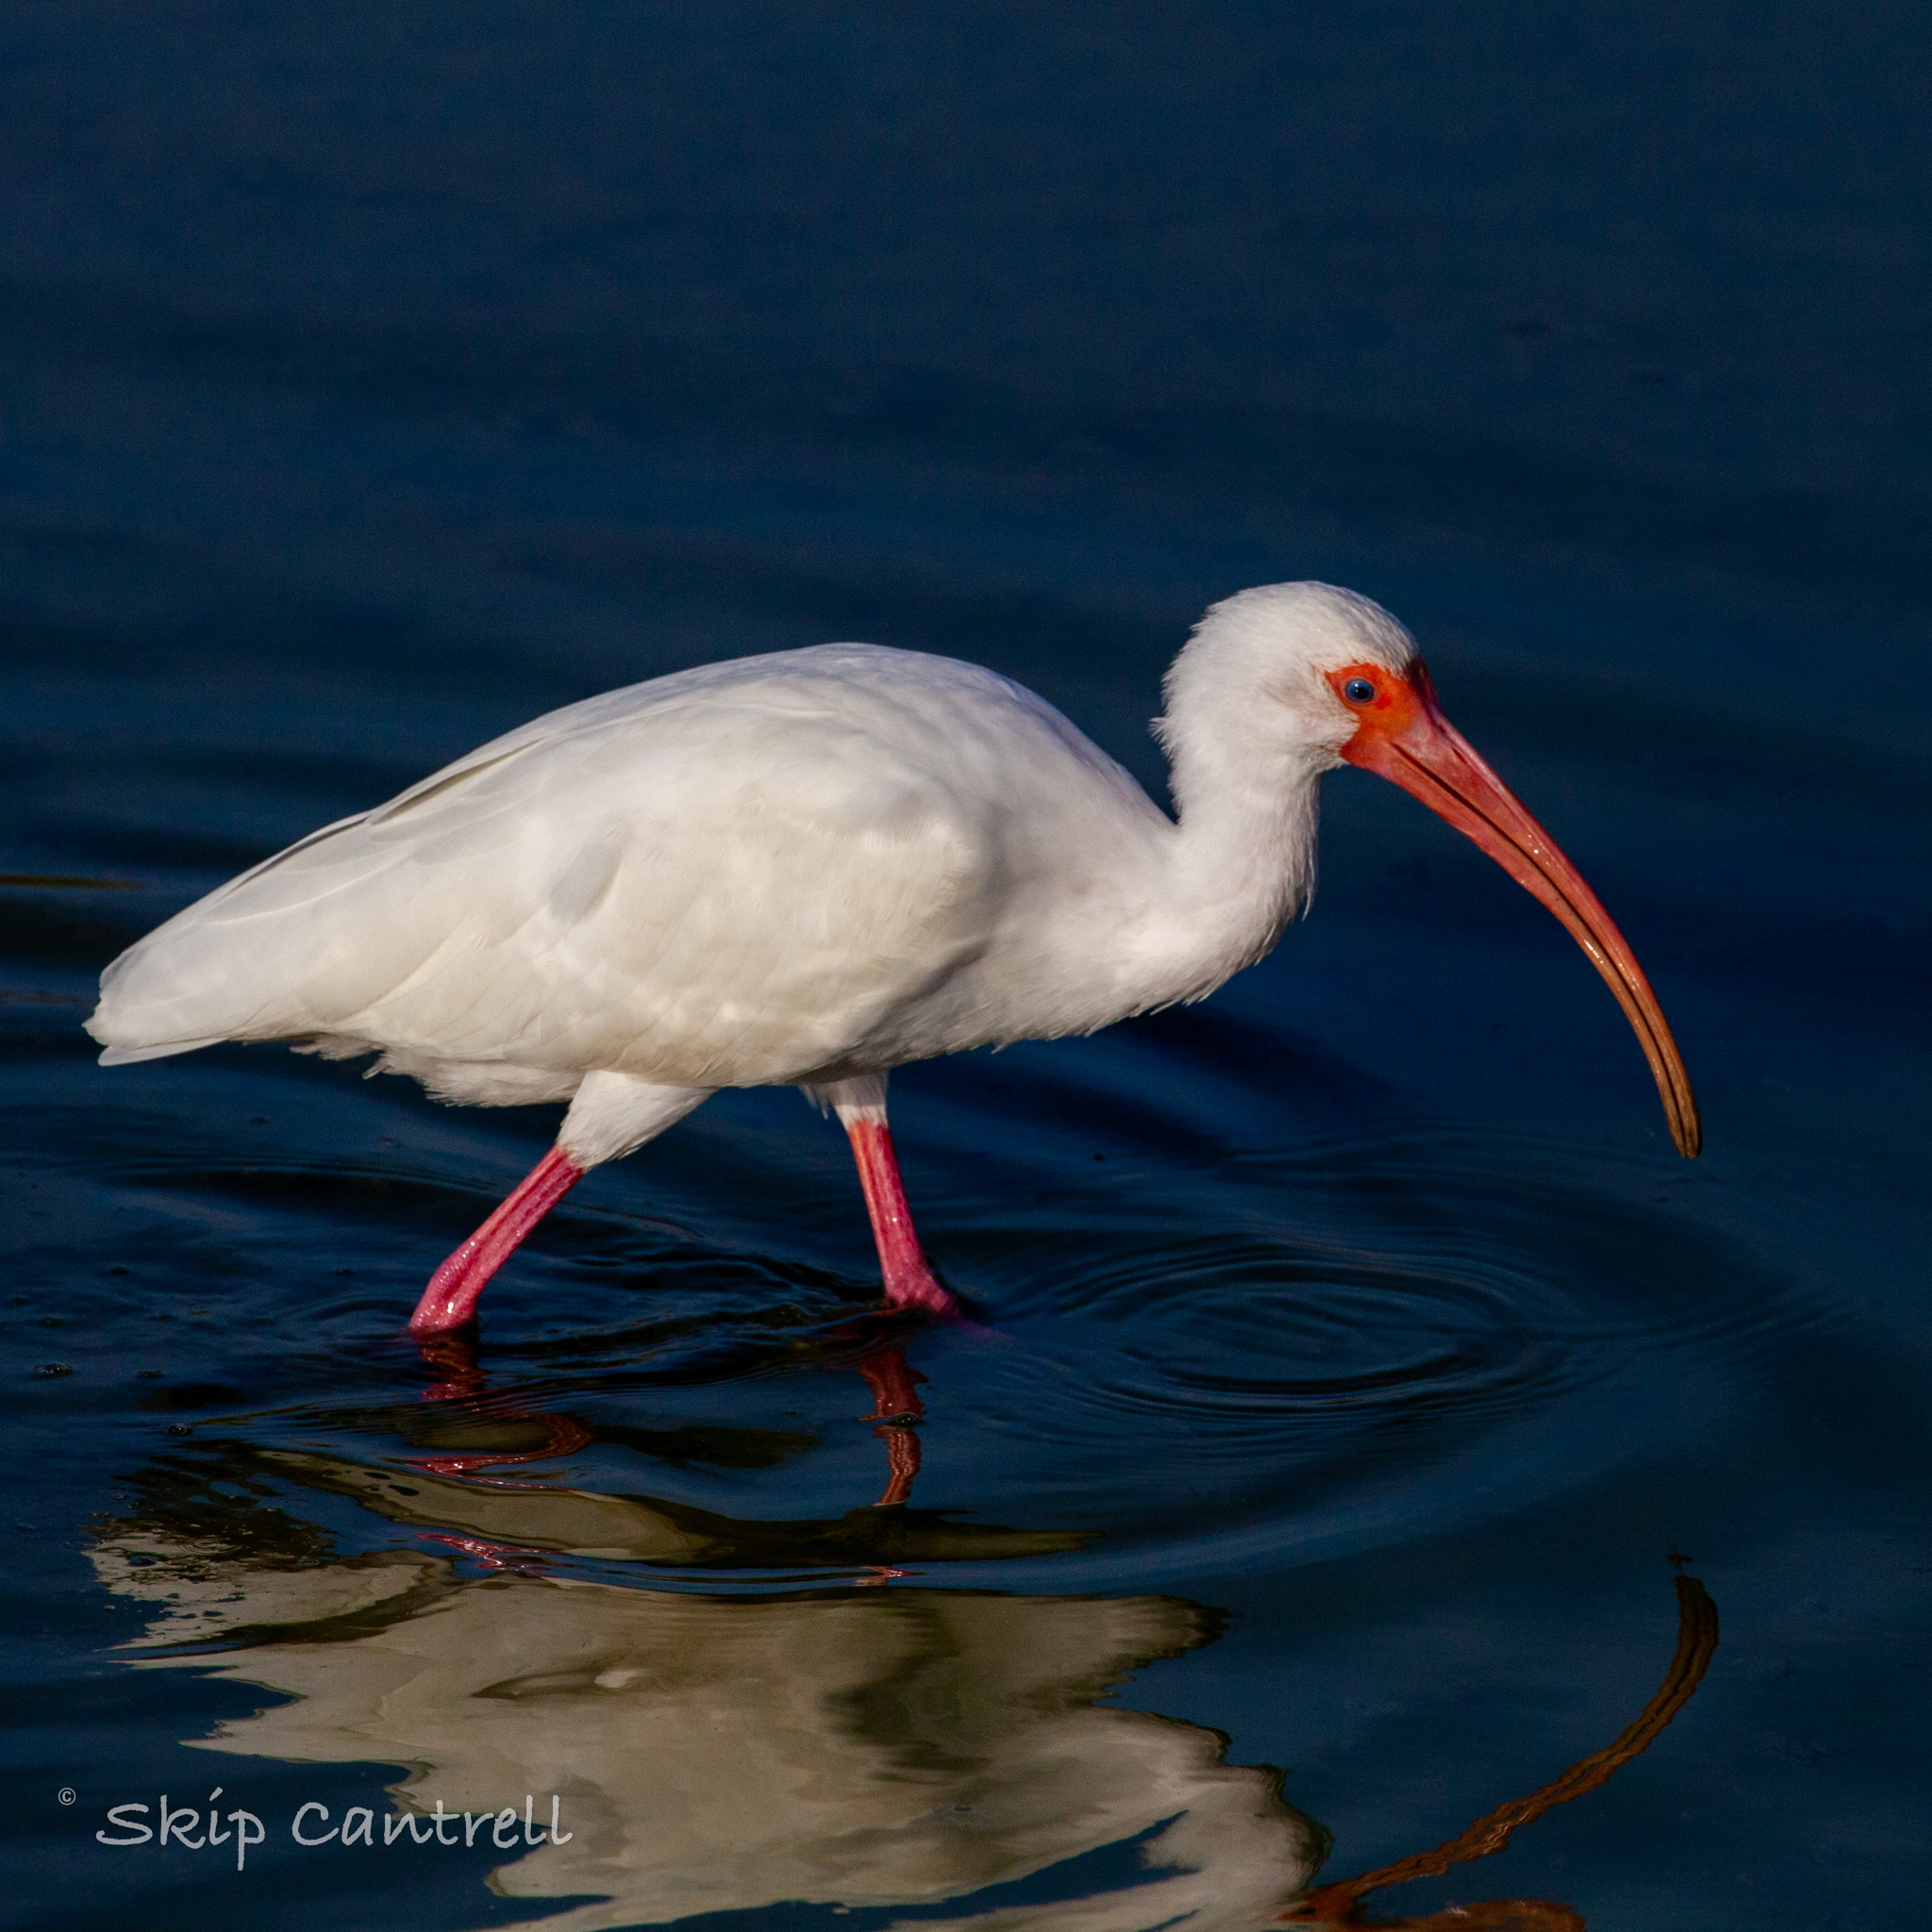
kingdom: Animalia
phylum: Chordata
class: Aves
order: Pelecaniformes
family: Threskiornithidae
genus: Eudocimus
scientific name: Eudocimus albus
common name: White ibis
